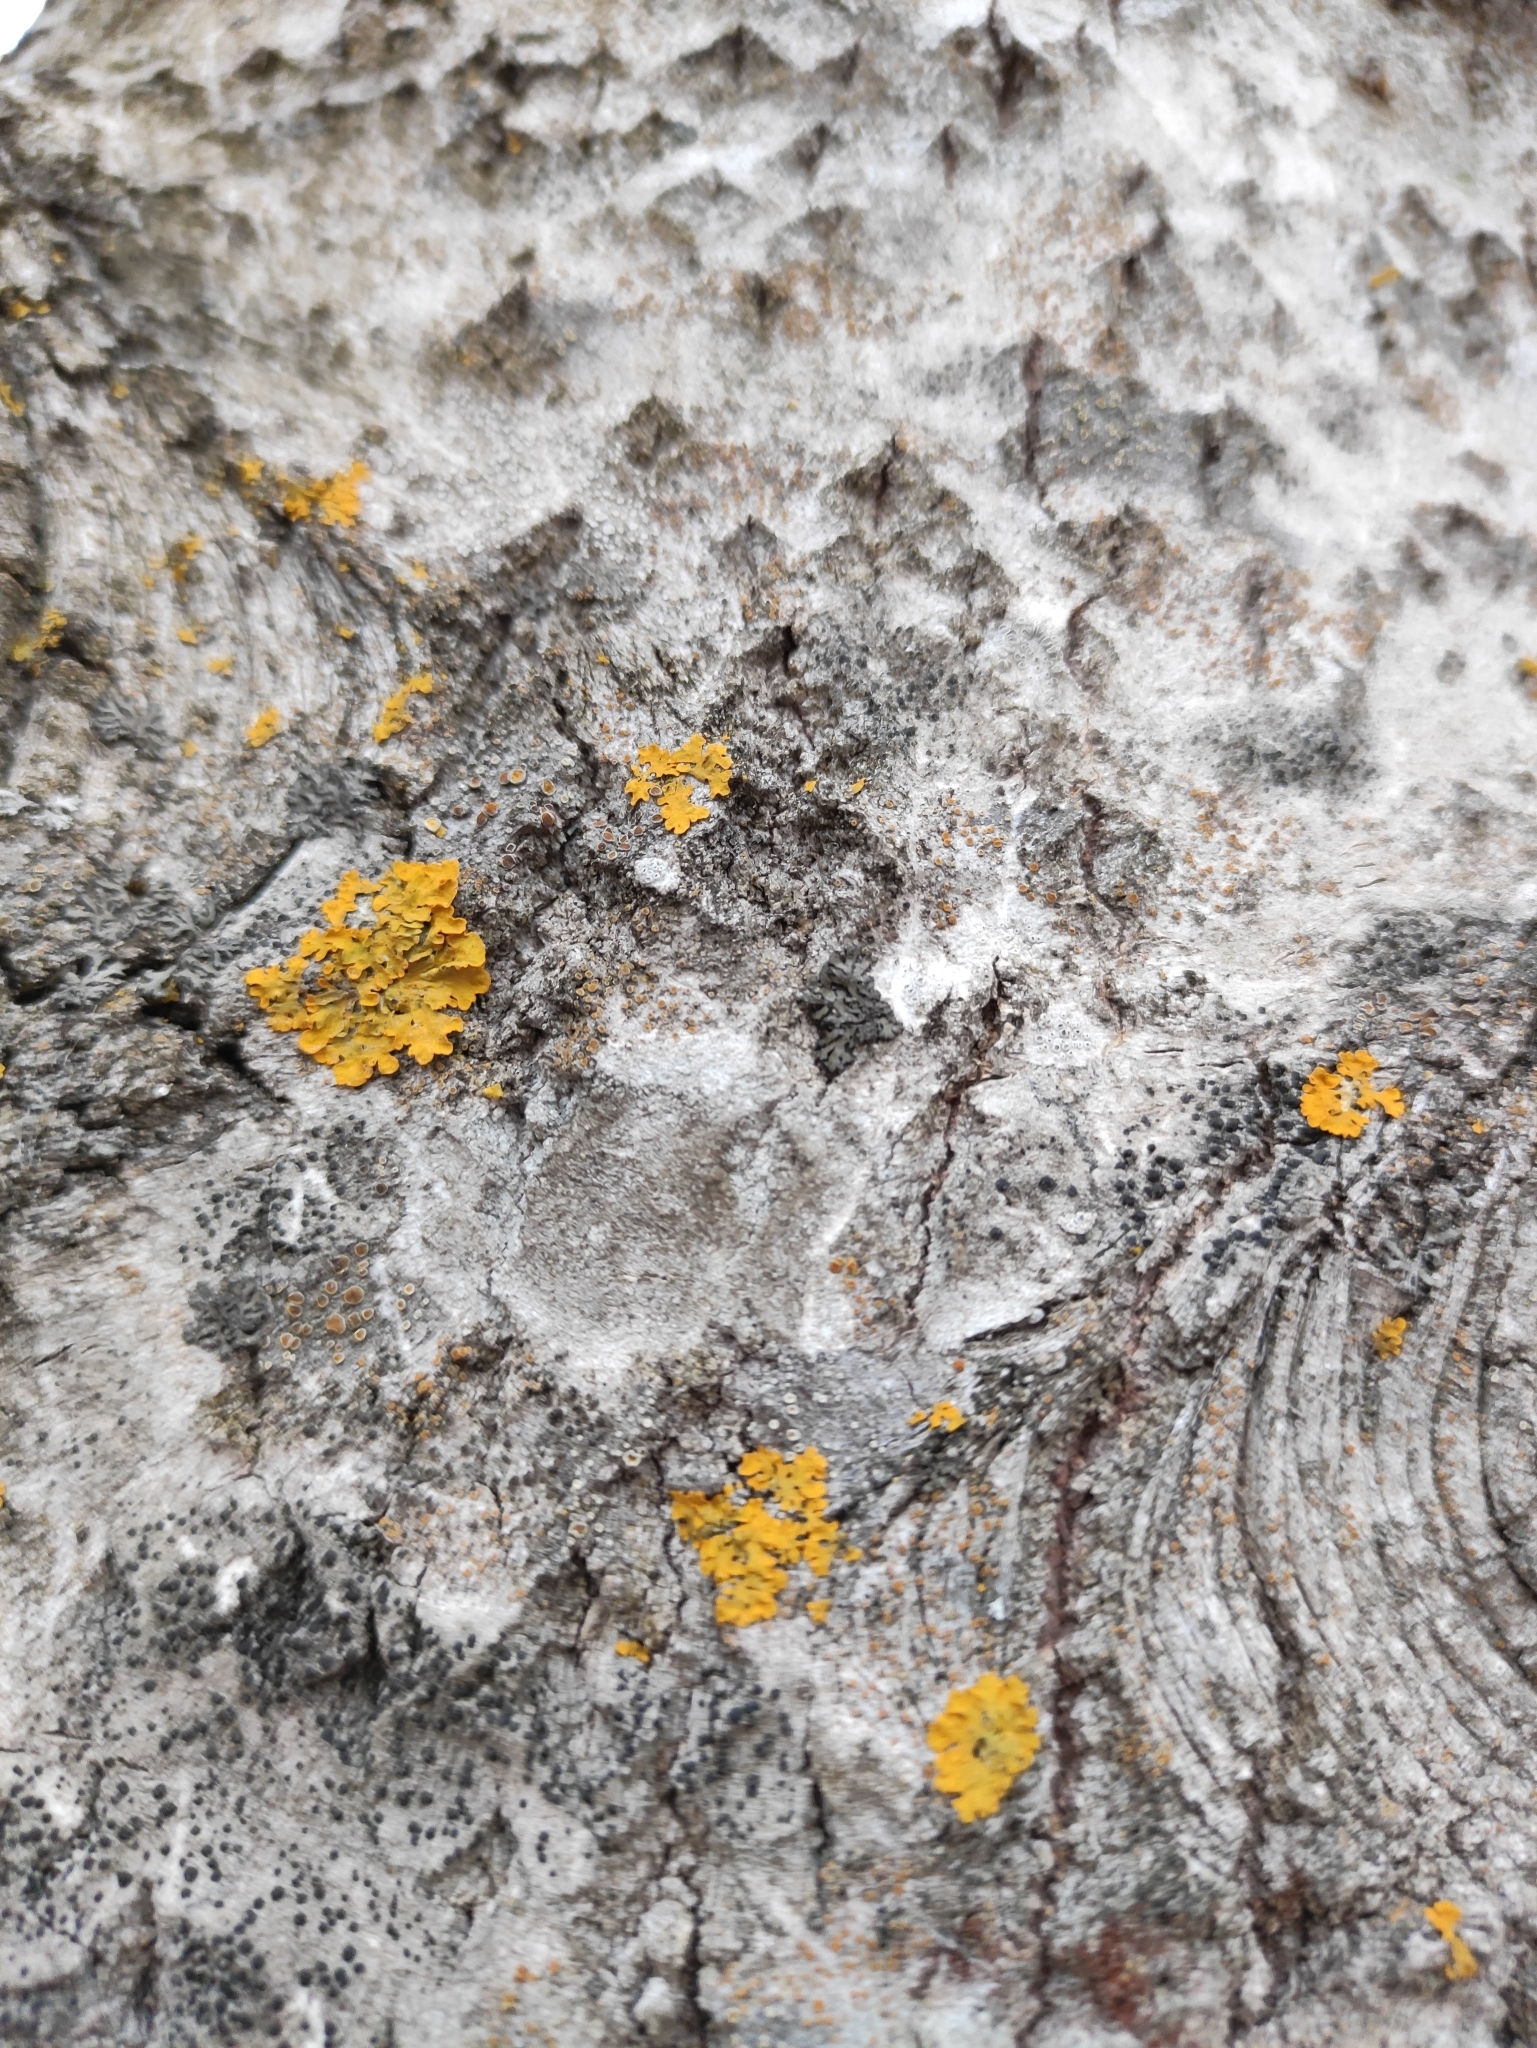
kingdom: Fungi
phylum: Ascomycota
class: Lecanoromycetes
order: Teloschistales
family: Teloschistaceae
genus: Xanthoria
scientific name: Xanthoria parietina
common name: Common orange lichen
